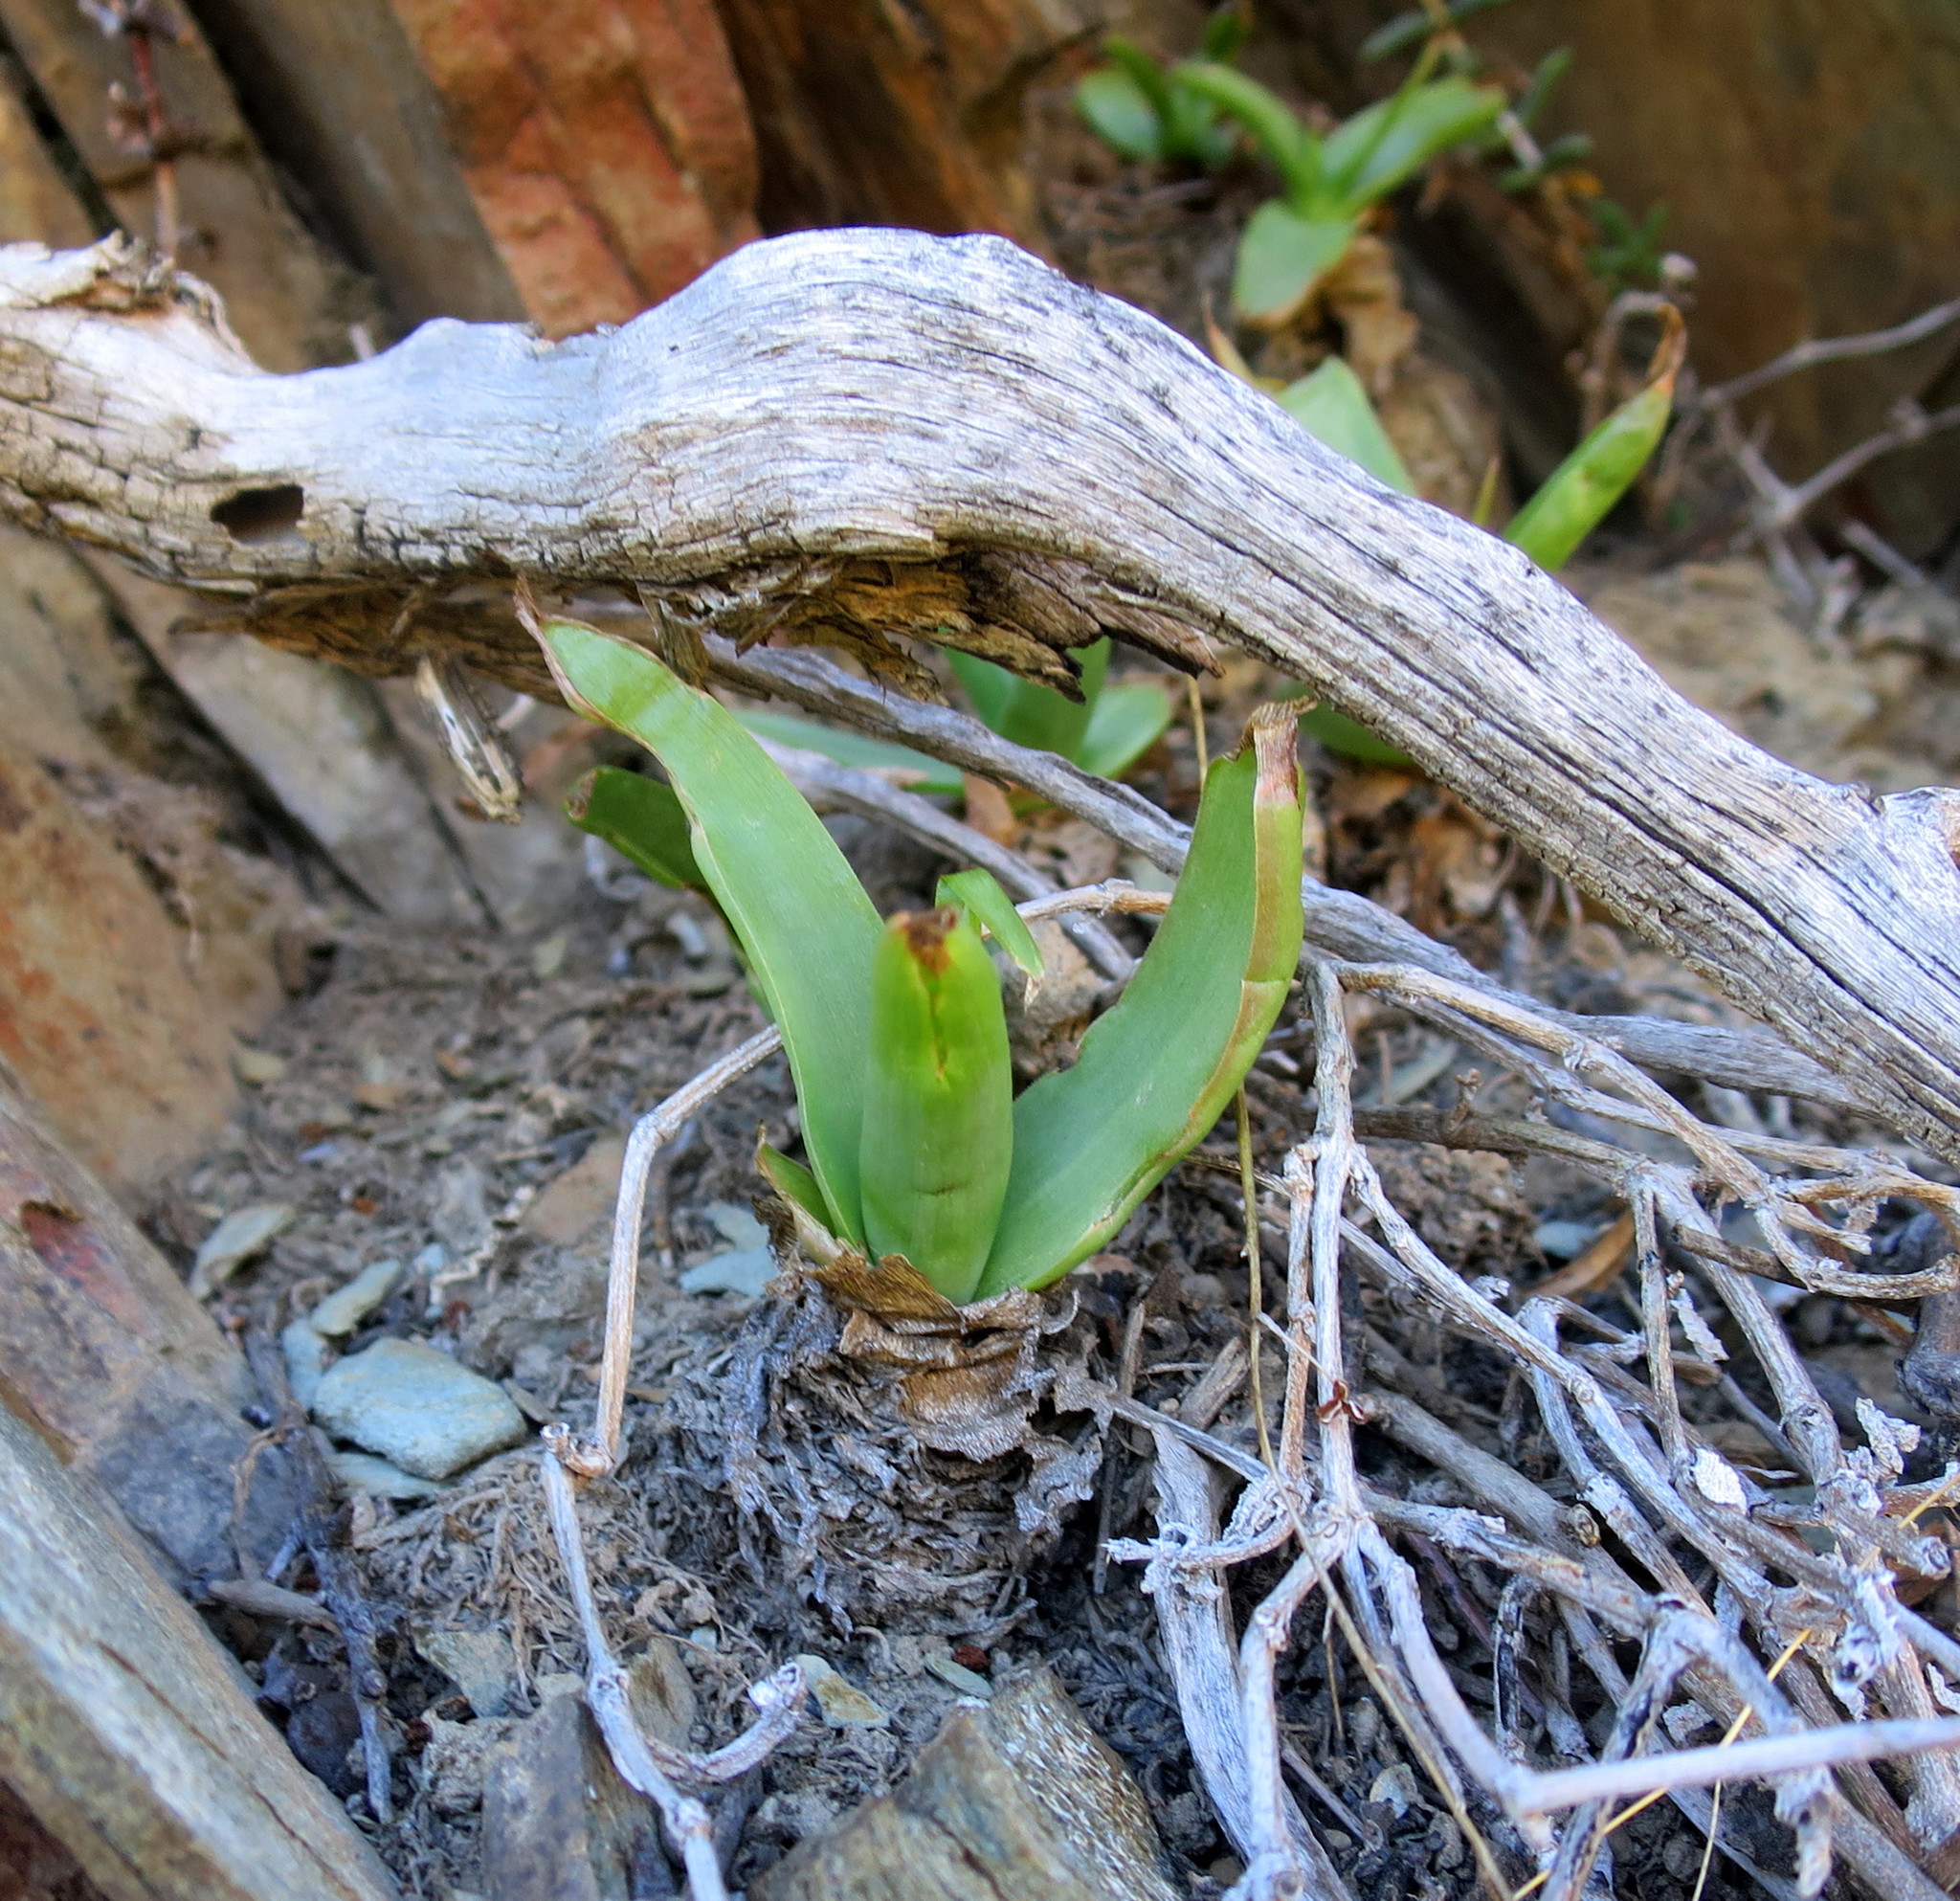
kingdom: Plantae
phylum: Tracheophyta
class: Liliopsida
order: Asparagales
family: Asphodelaceae
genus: Bulbine
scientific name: Bulbine latifolia
